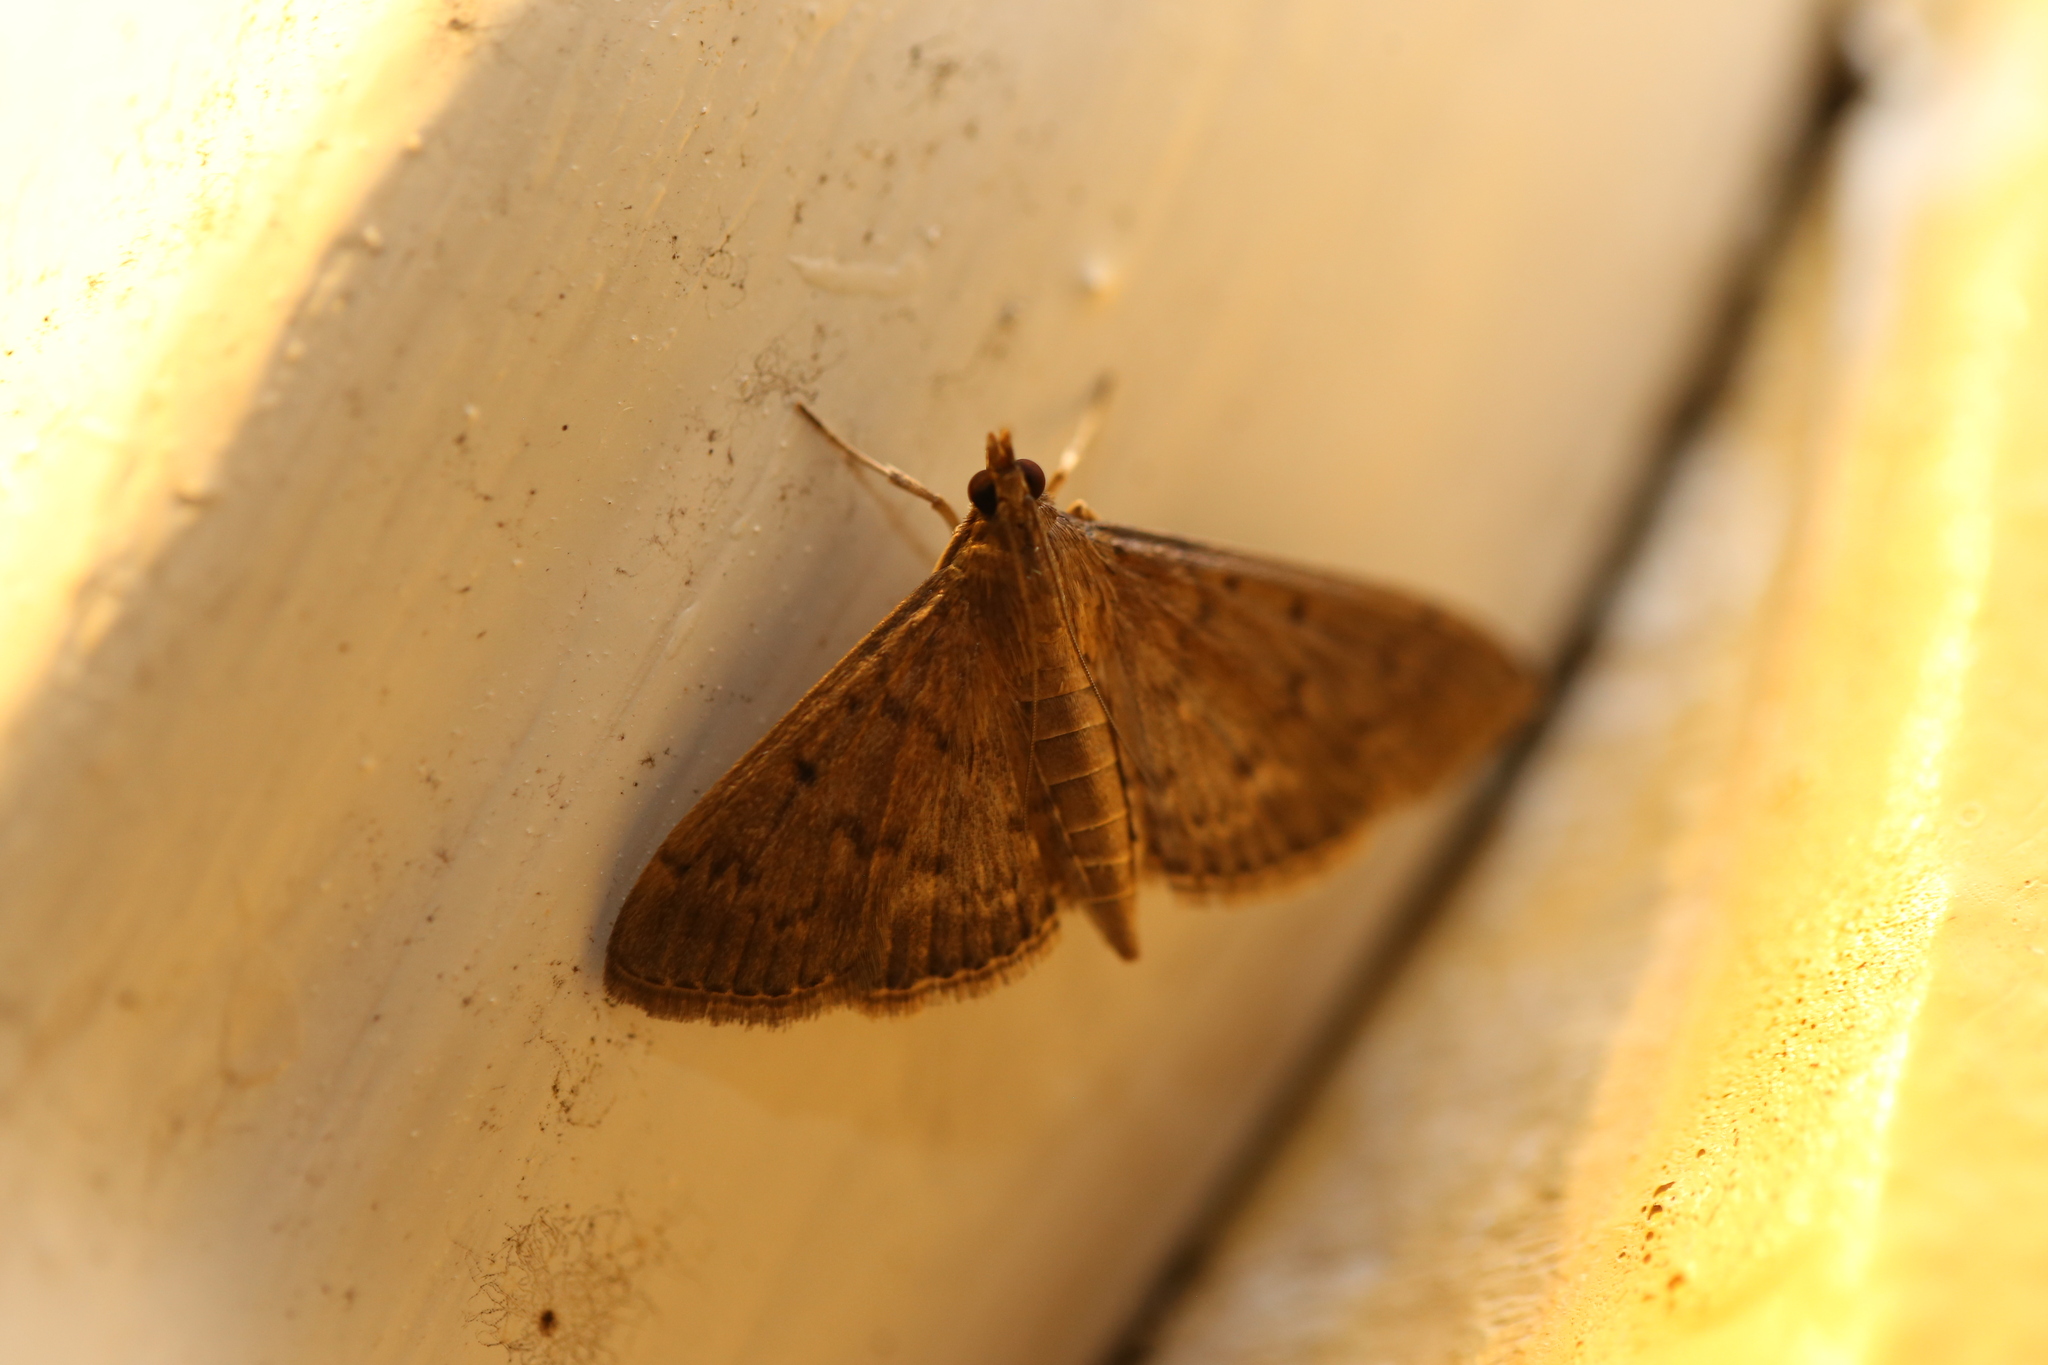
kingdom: Animalia
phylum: Arthropoda
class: Insecta
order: Lepidoptera
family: Crambidae
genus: Herpetogramma
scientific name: Herpetogramma licarsisalis
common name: Grass webworm
